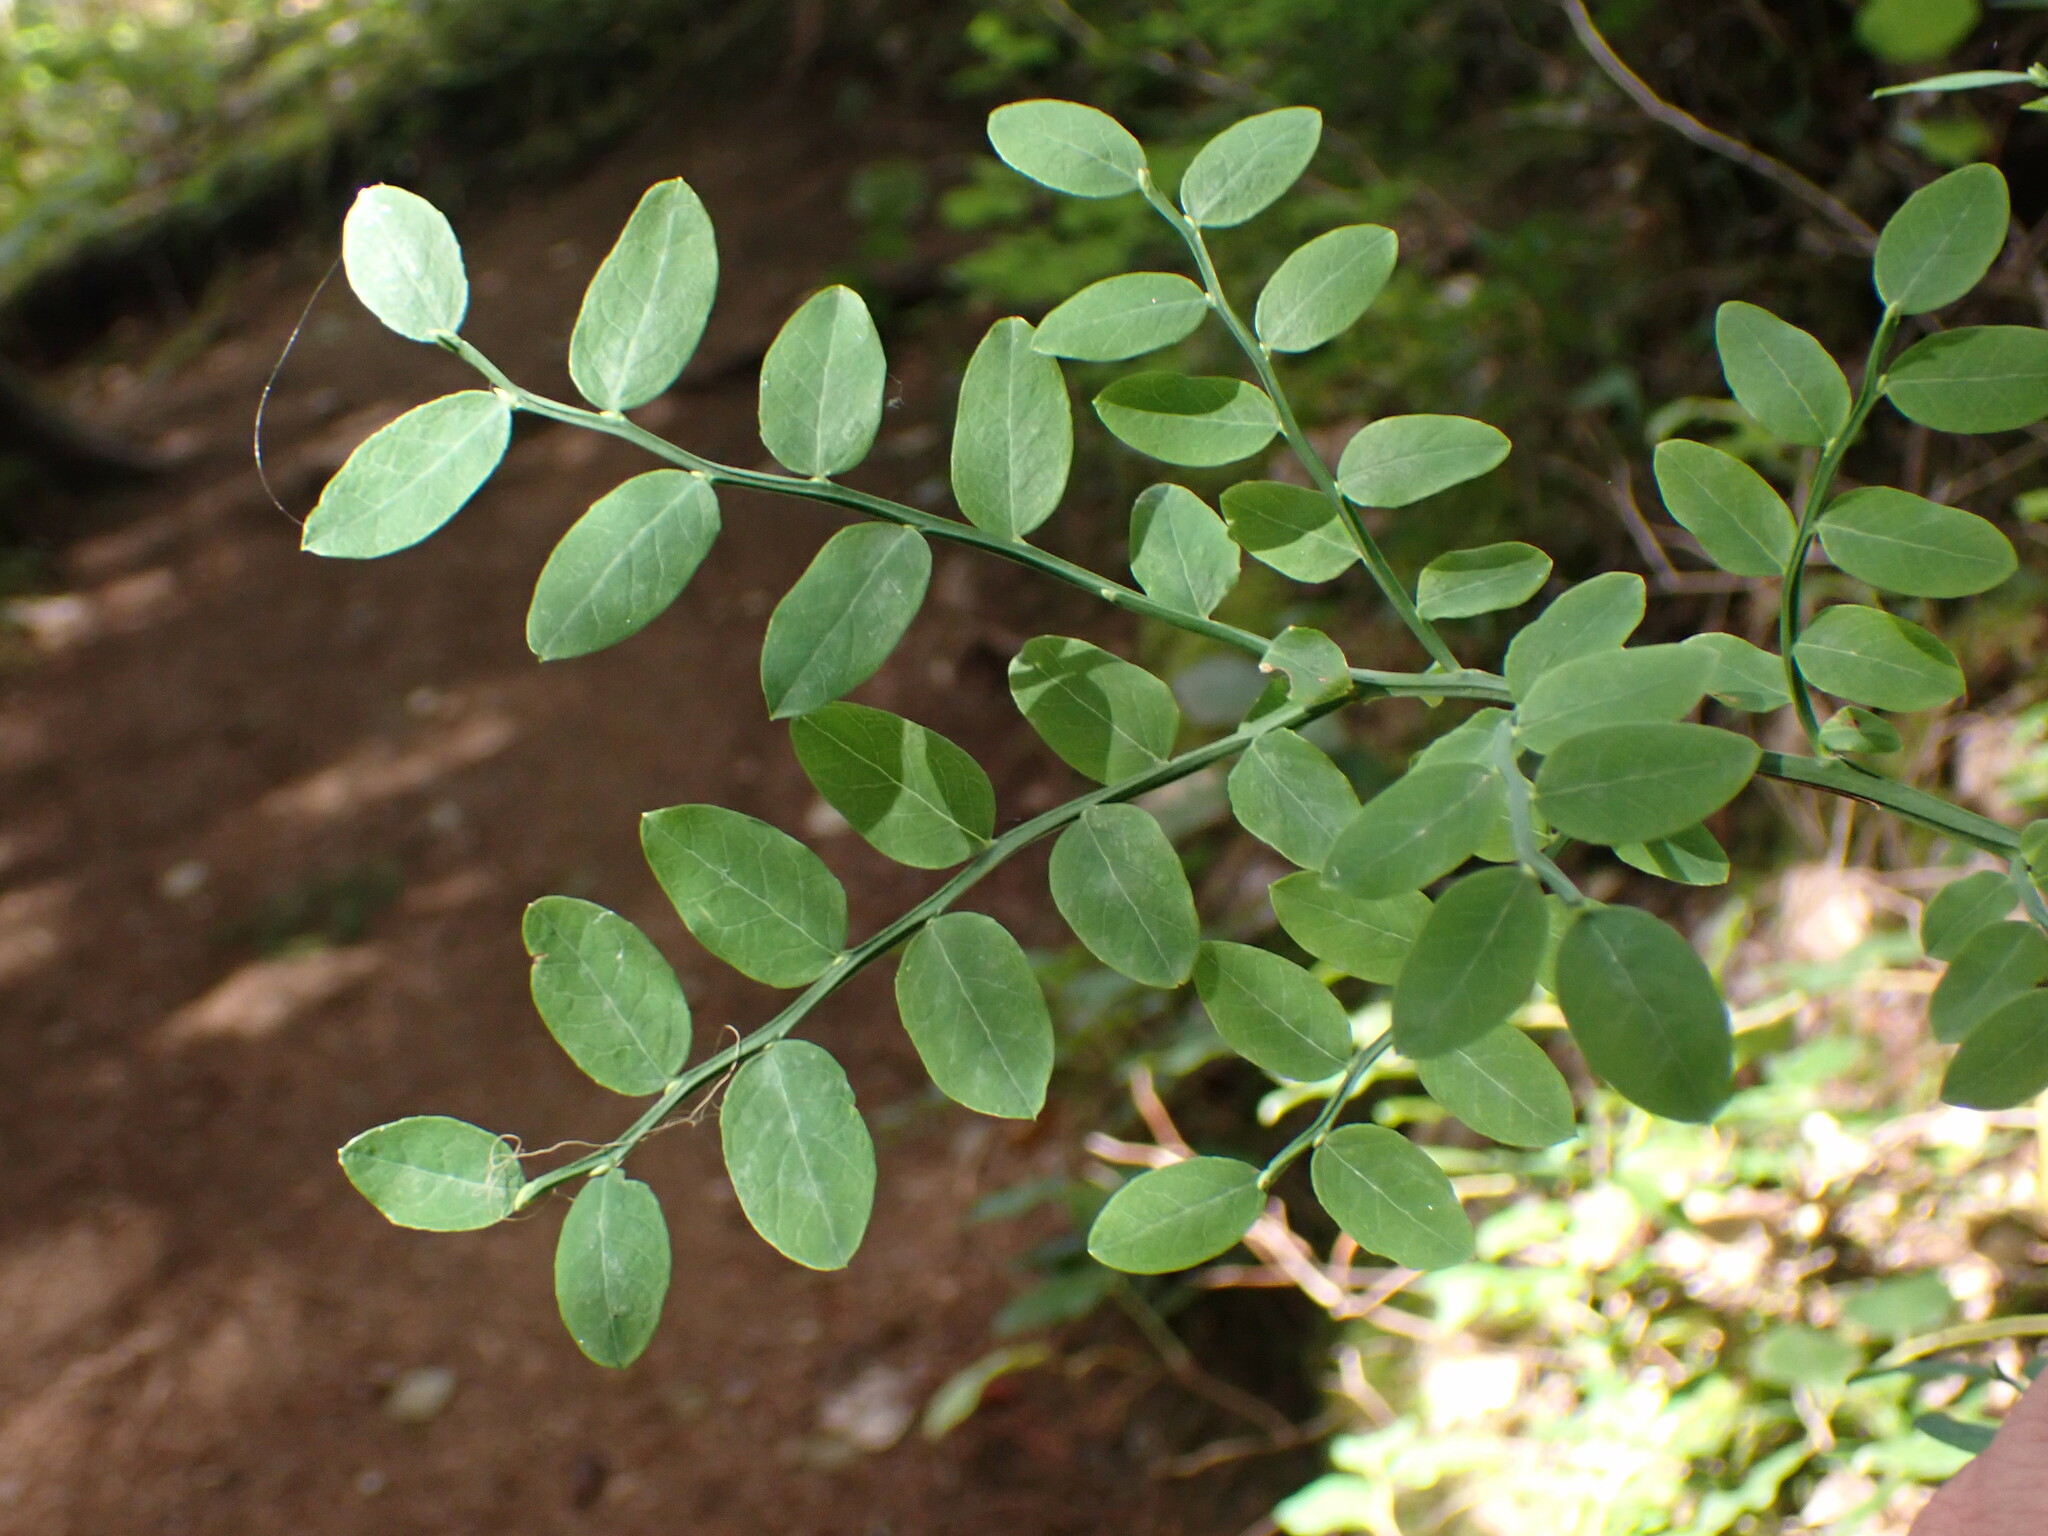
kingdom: Plantae
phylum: Tracheophyta
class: Magnoliopsida
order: Ericales
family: Ericaceae
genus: Vaccinium
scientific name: Vaccinium parvifolium
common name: Red-huckleberry
